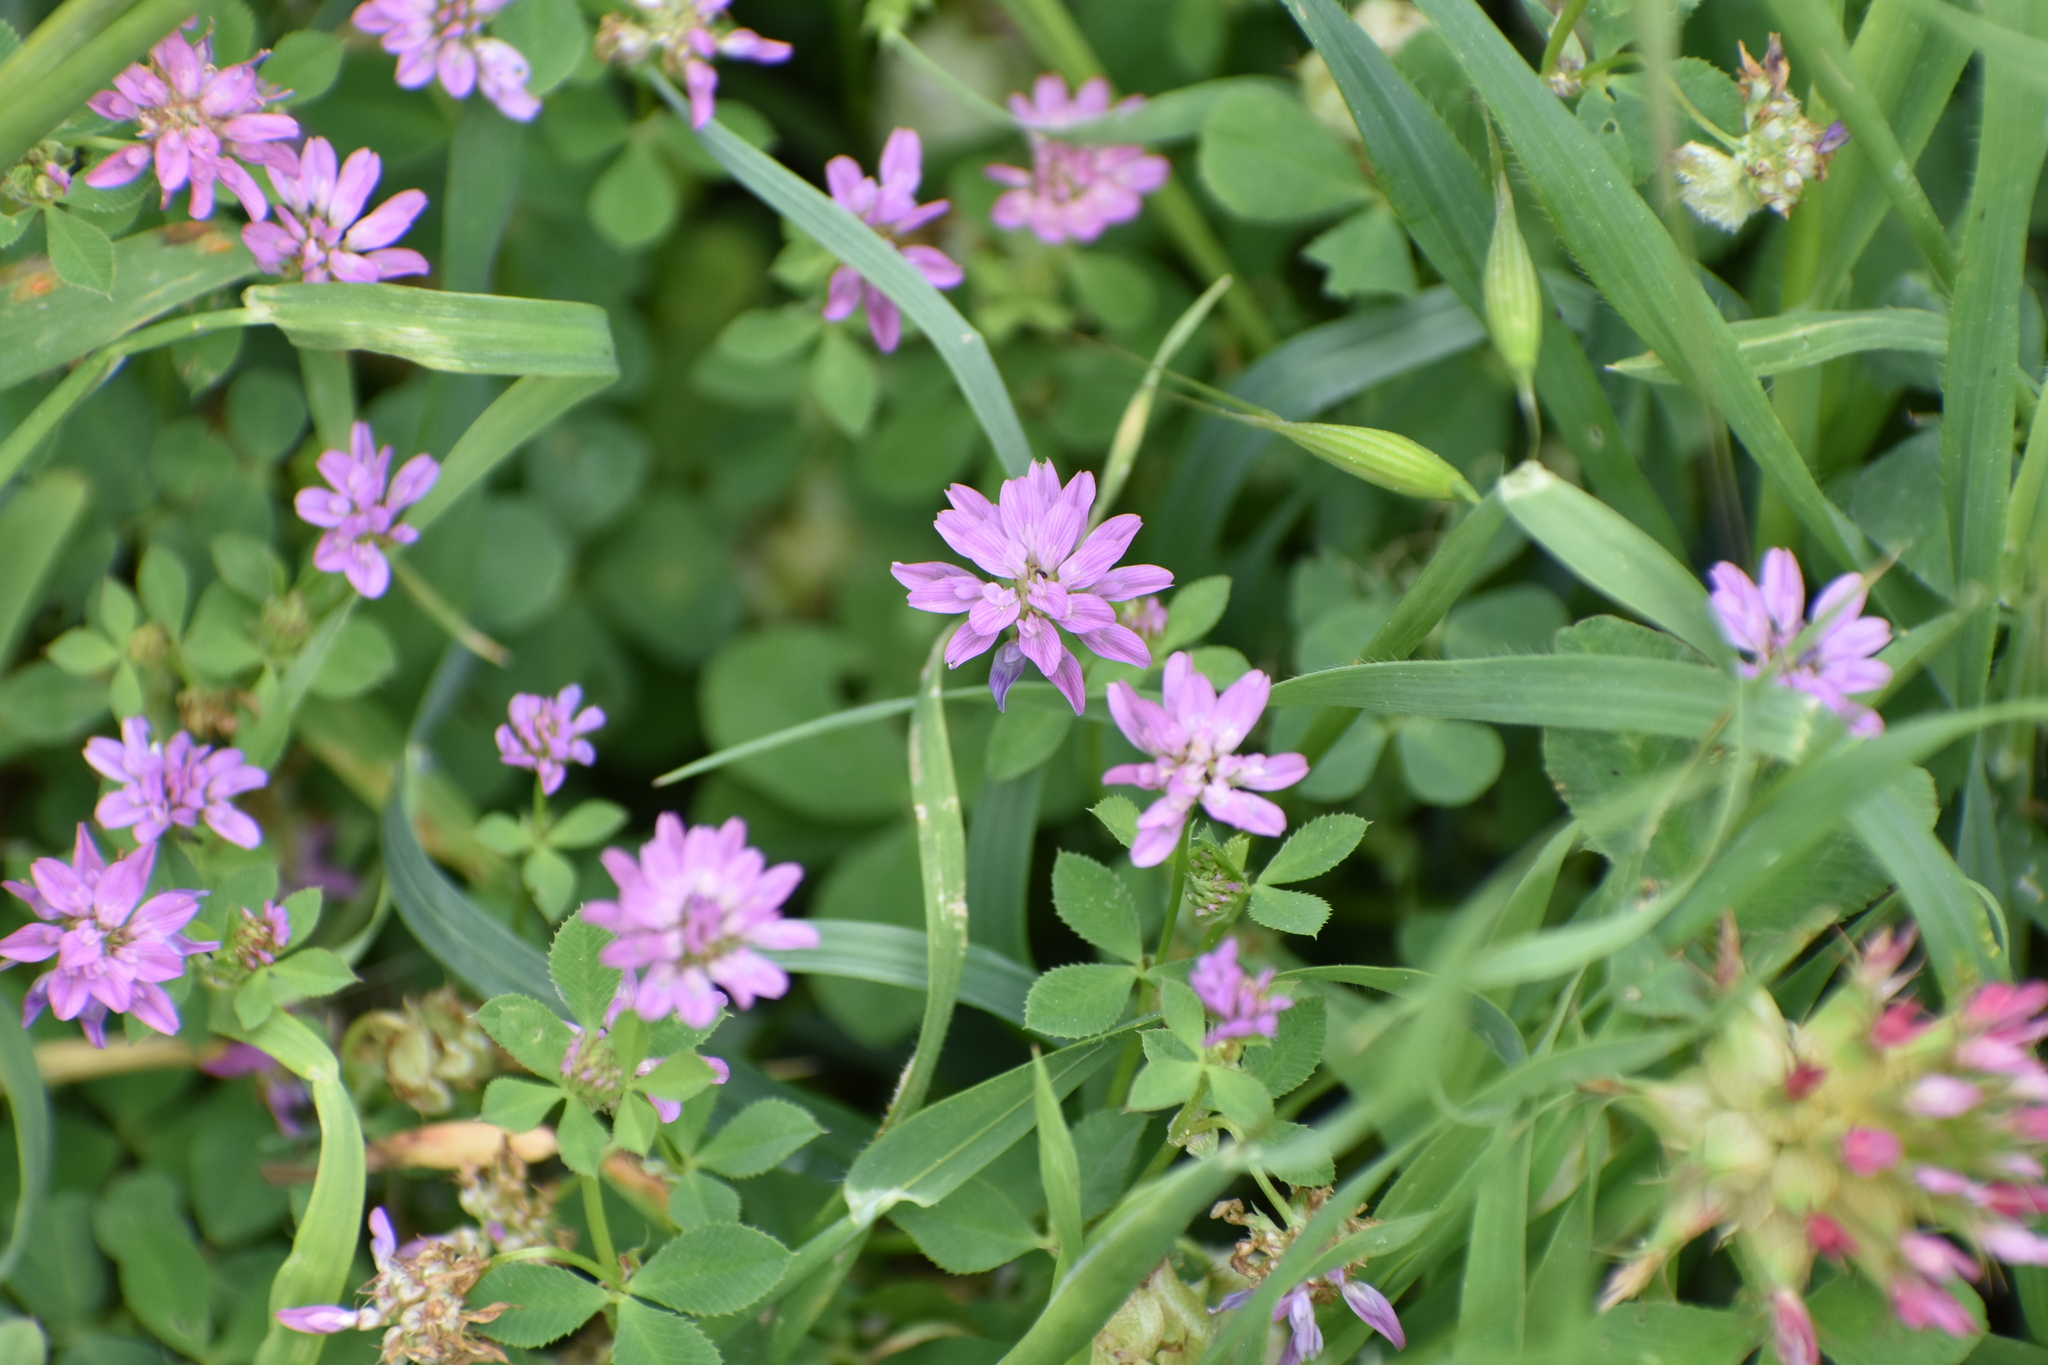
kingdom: Plantae
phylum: Tracheophyta
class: Magnoliopsida
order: Fabales
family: Fabaceae
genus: Trifolium
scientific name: Trifolium resupinatum
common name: Reversed clover
